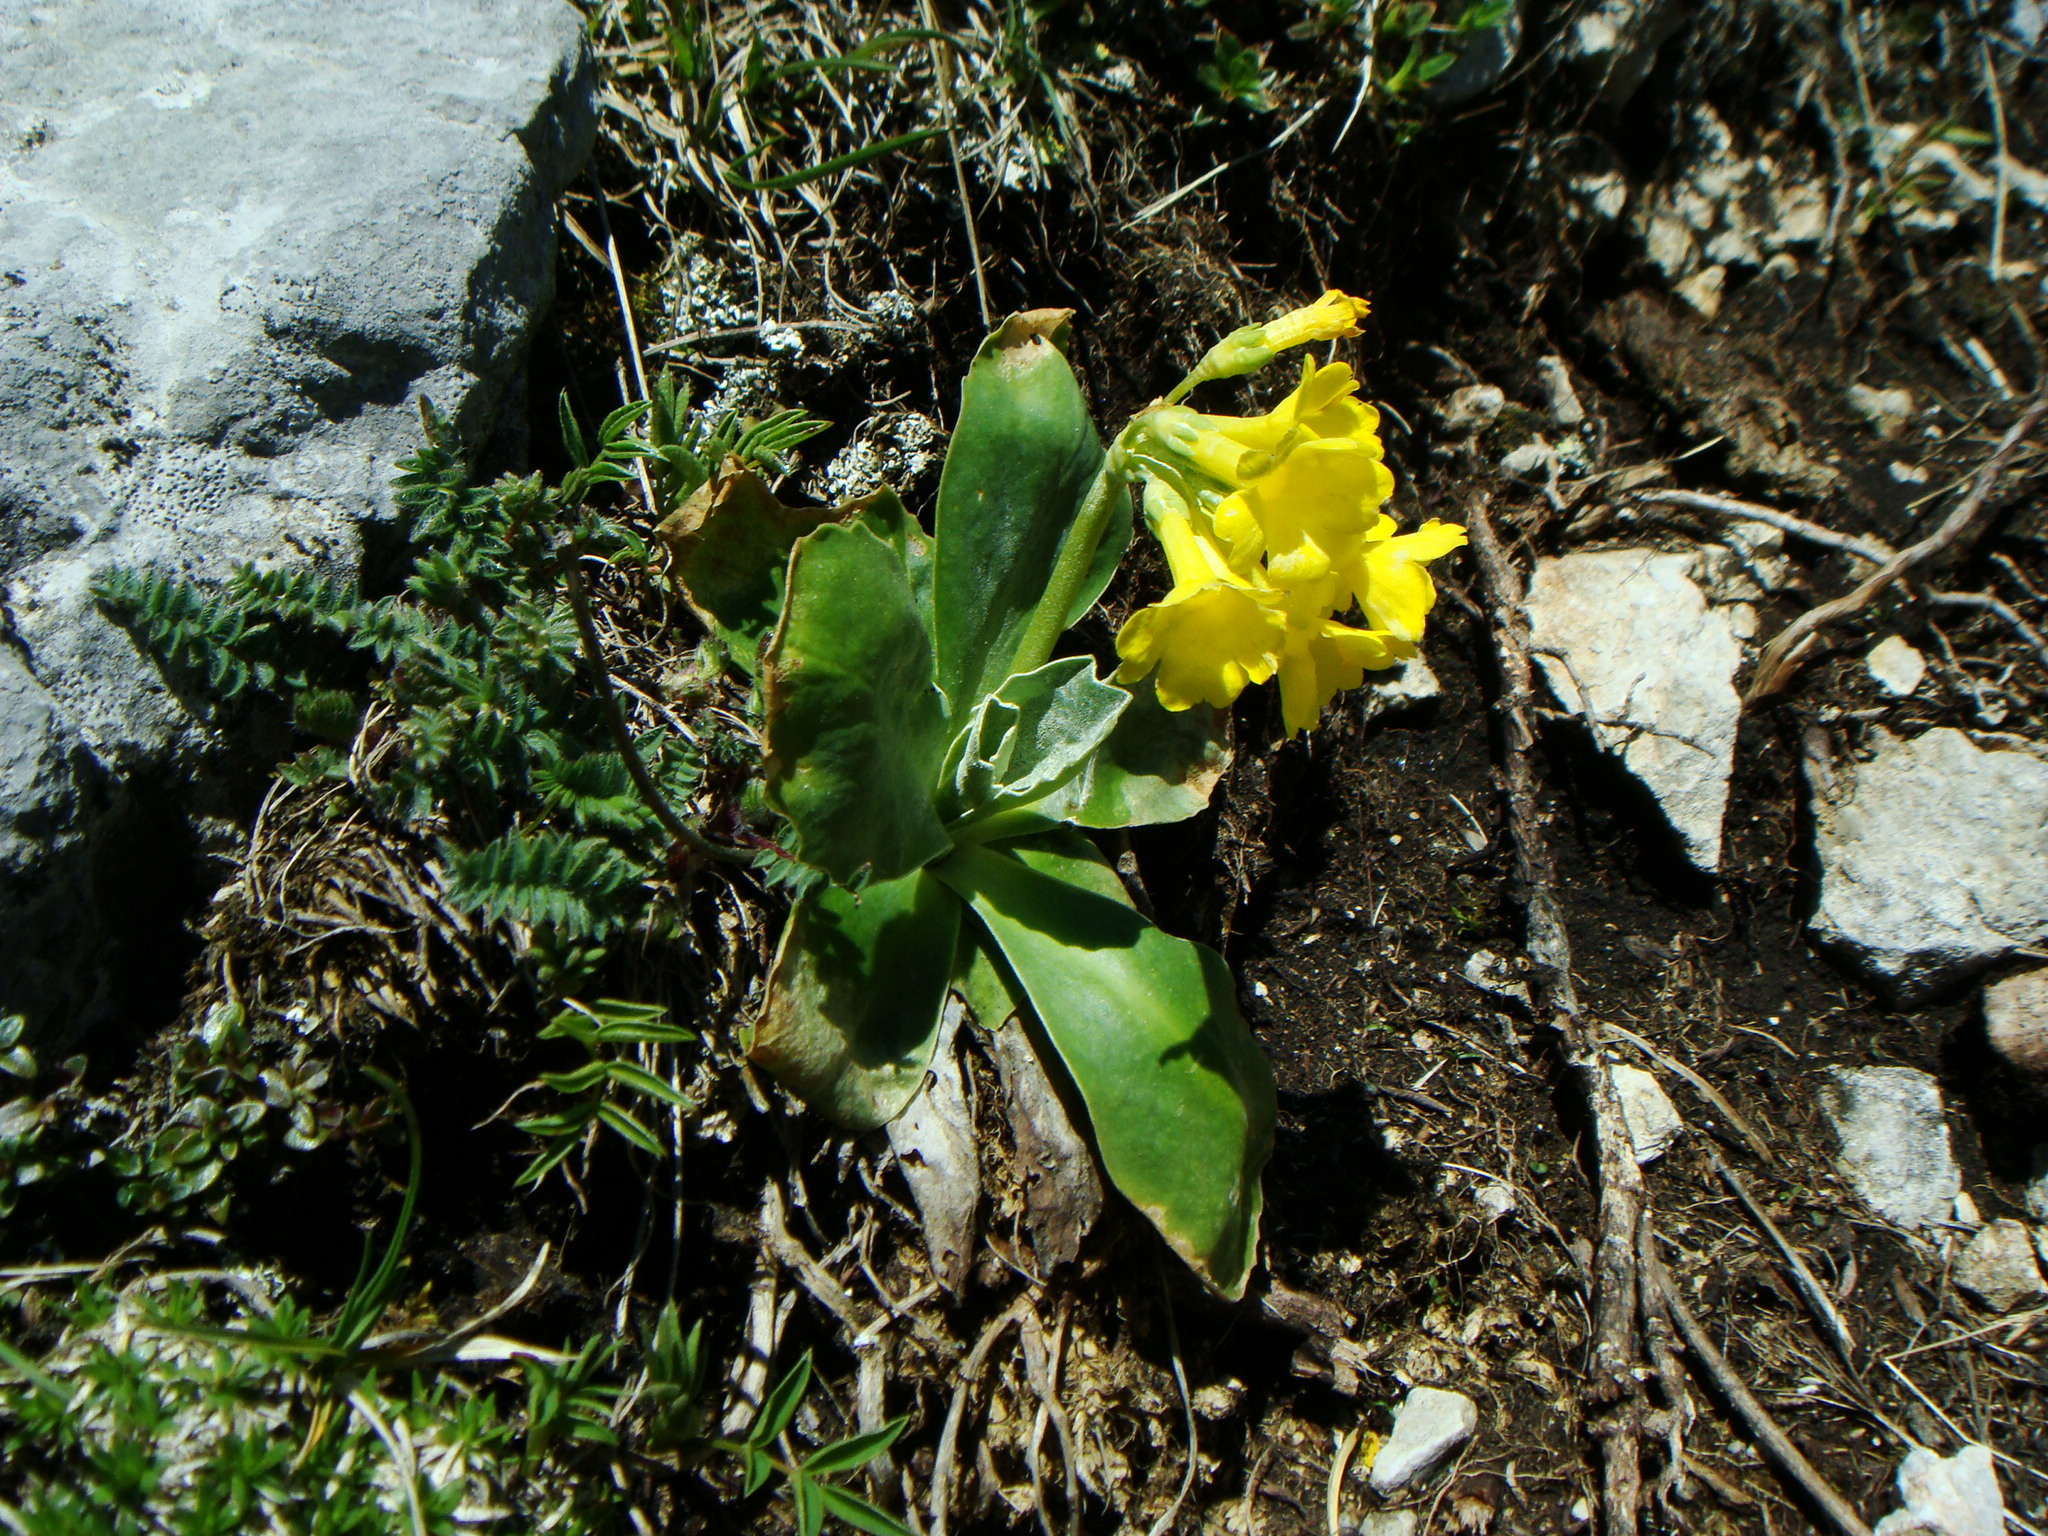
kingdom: Plantae
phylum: Tracheophyta
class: Magnoliopsida
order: Ericales
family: Primulaceae
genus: Primula
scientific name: Primula auricula
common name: Auricula
